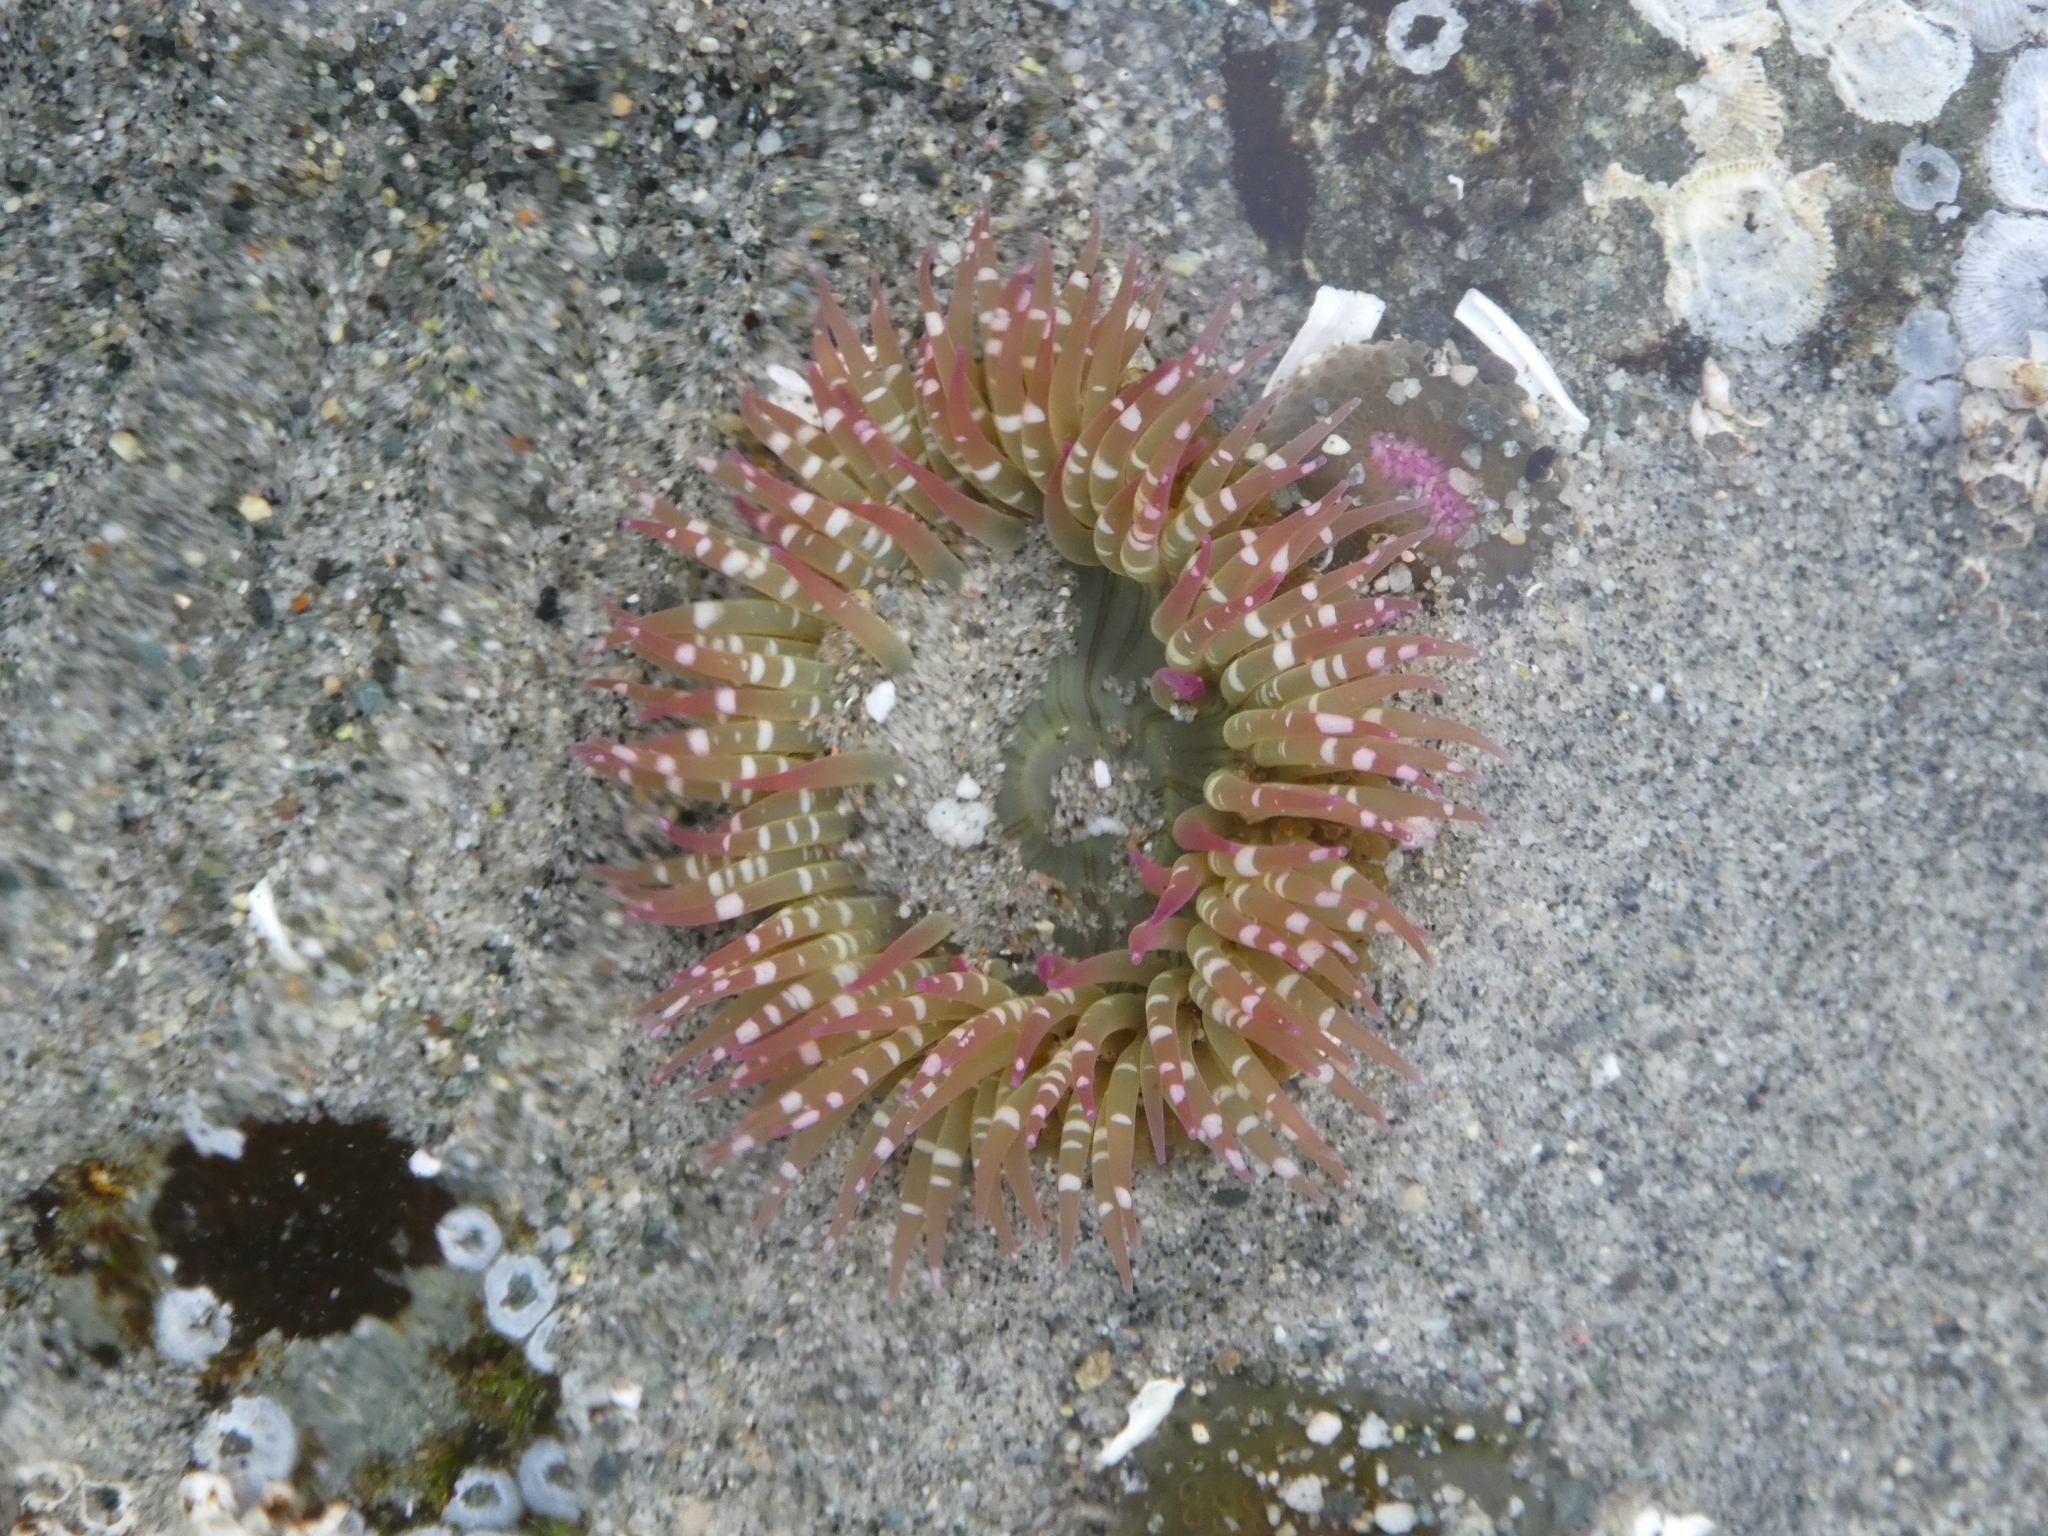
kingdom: Animalia
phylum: Cnidaria
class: Anthozoa
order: Actiniaria
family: Actiniidae
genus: Anthopleura
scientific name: Anthopleura elegantissima
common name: Clonal anemone
